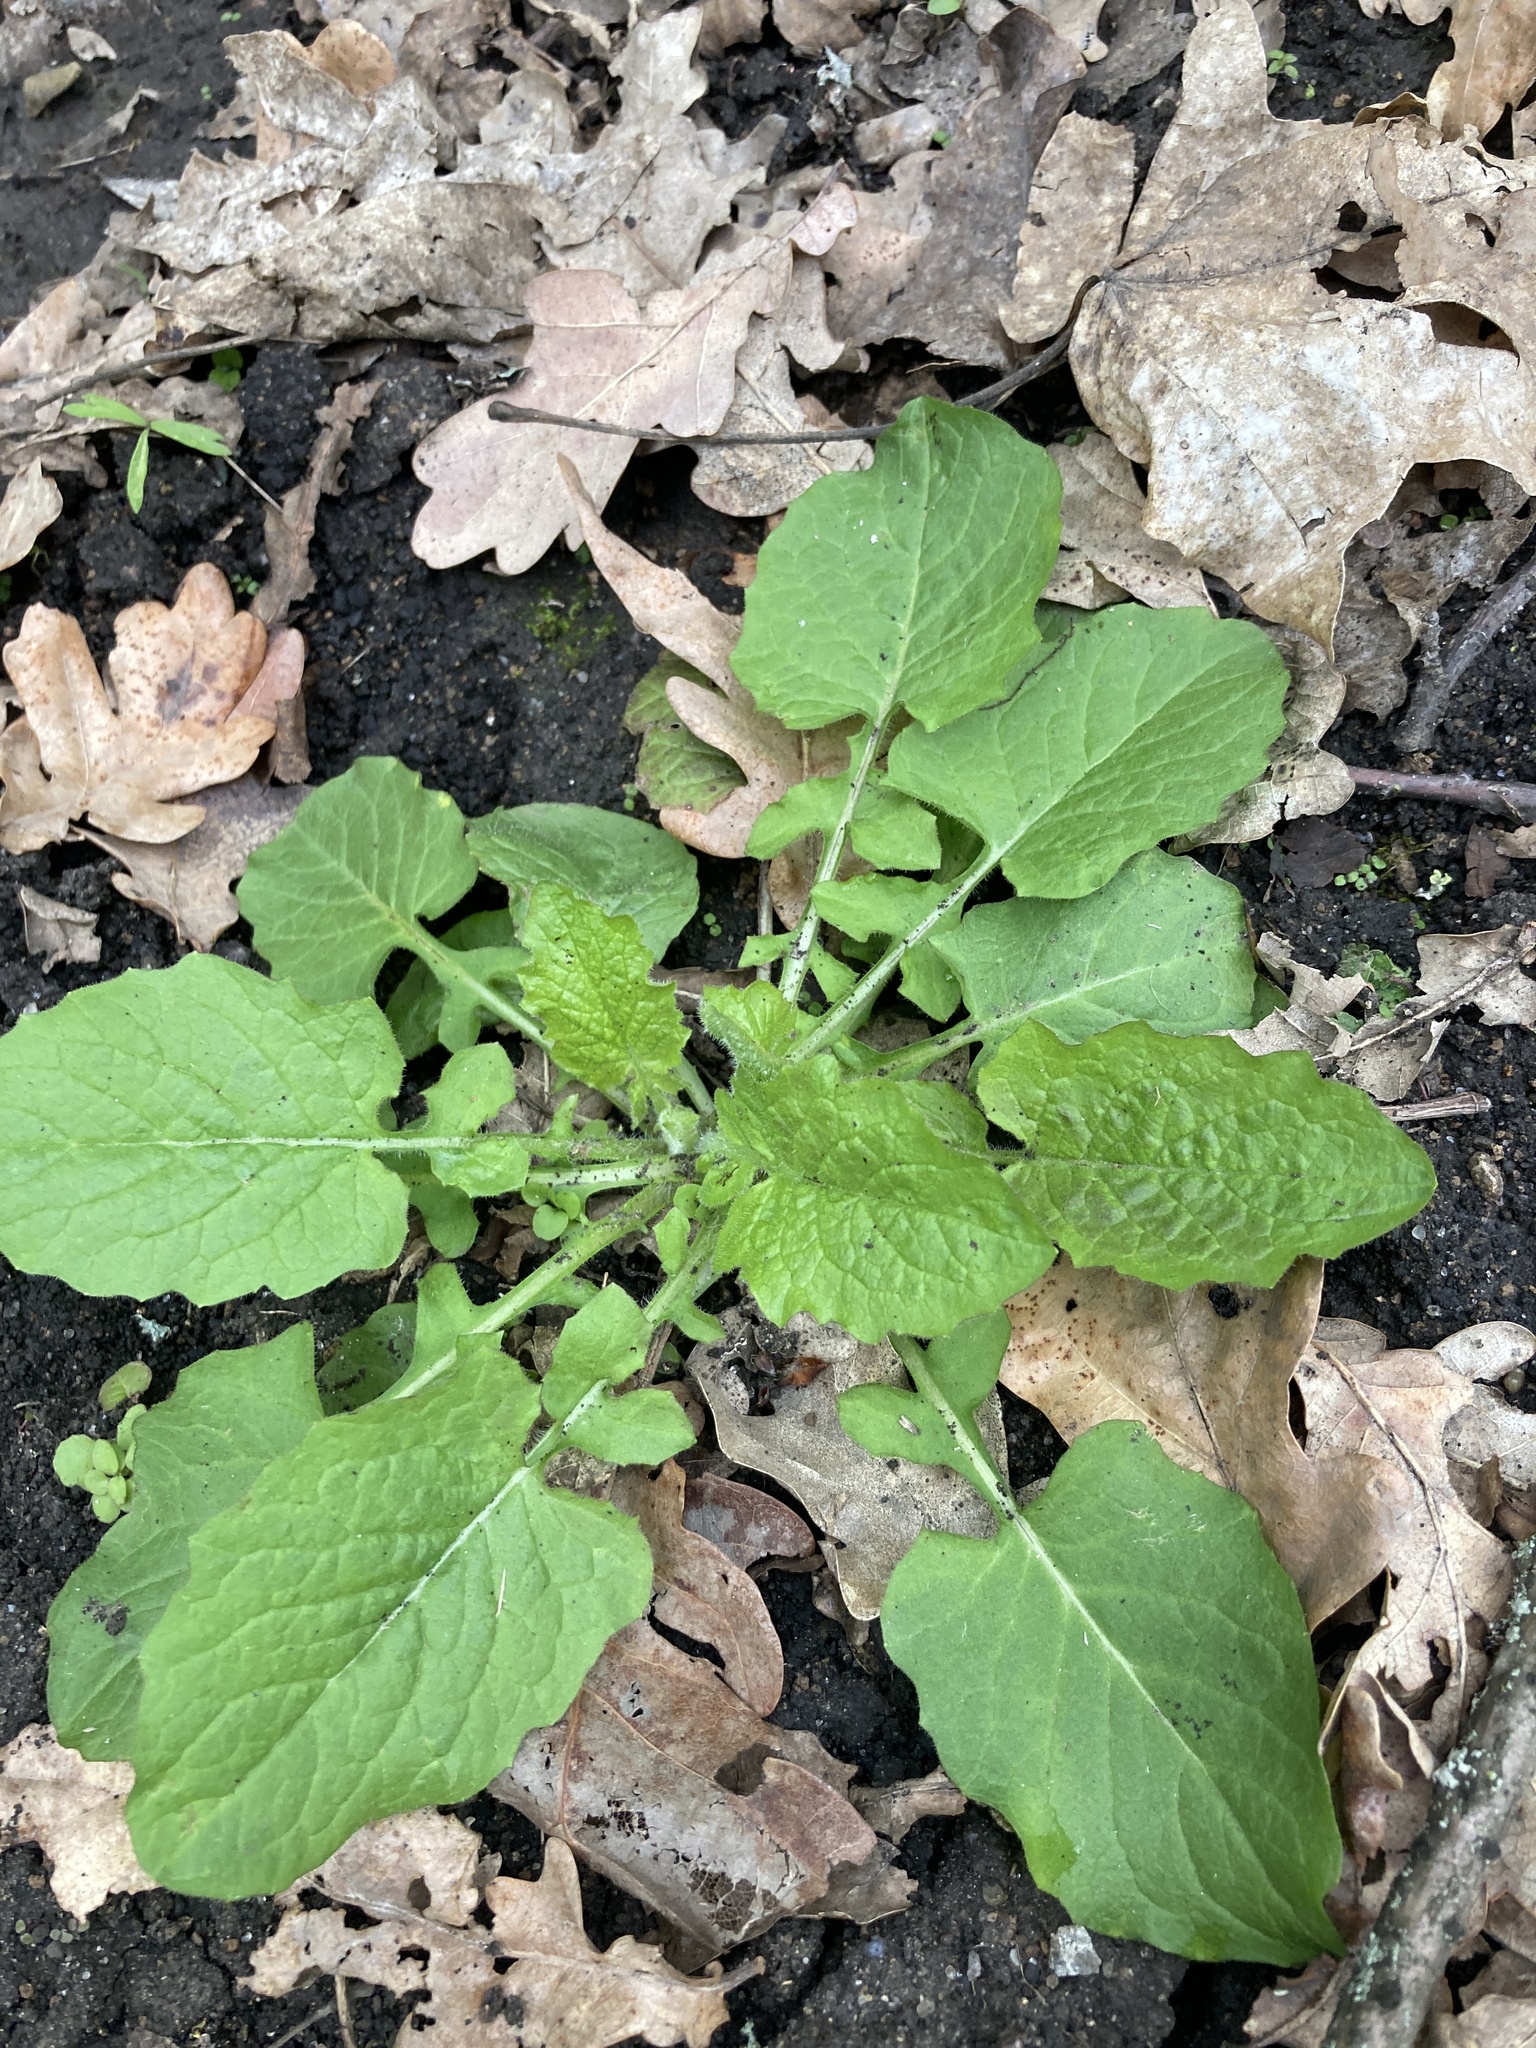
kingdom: Plantae
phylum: Tracheophyta
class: Magnoliopsida
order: Asterales
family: Asteraceae
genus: Lapsana
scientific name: Lapsana communis
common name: Nipplewort
